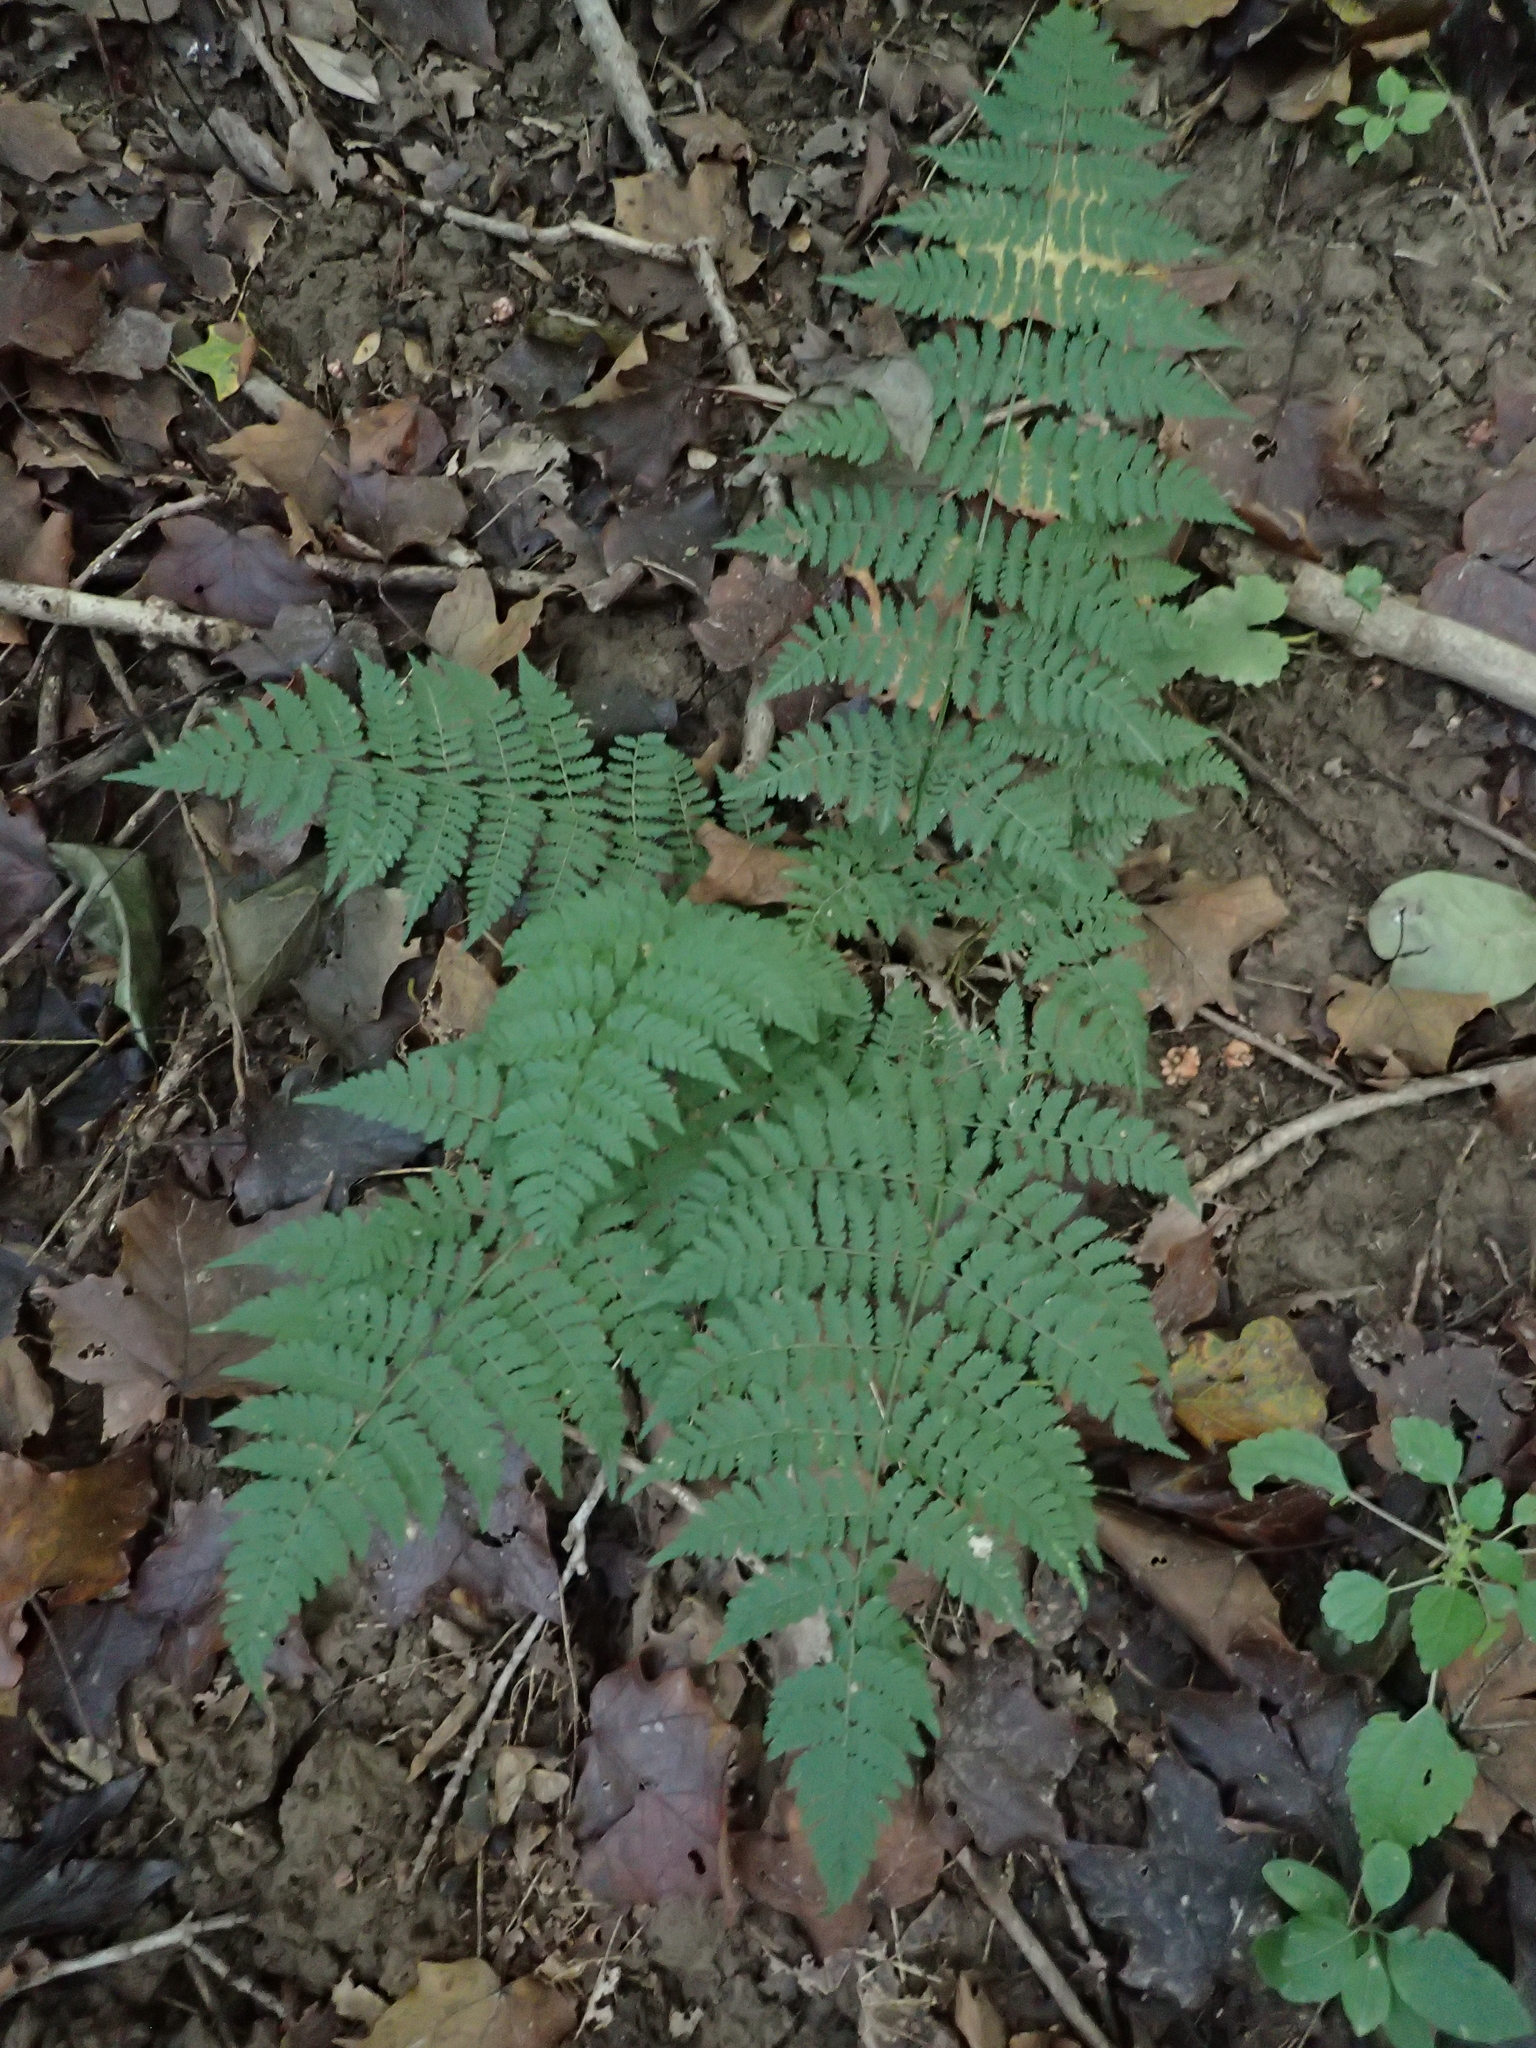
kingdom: Plantae
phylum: Tracheophyta
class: Polypodiopsida
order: Polypodiales
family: Dryopteridaceae
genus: Dryopteris
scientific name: Dryopteris intermedia
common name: Evergreen wood fern
